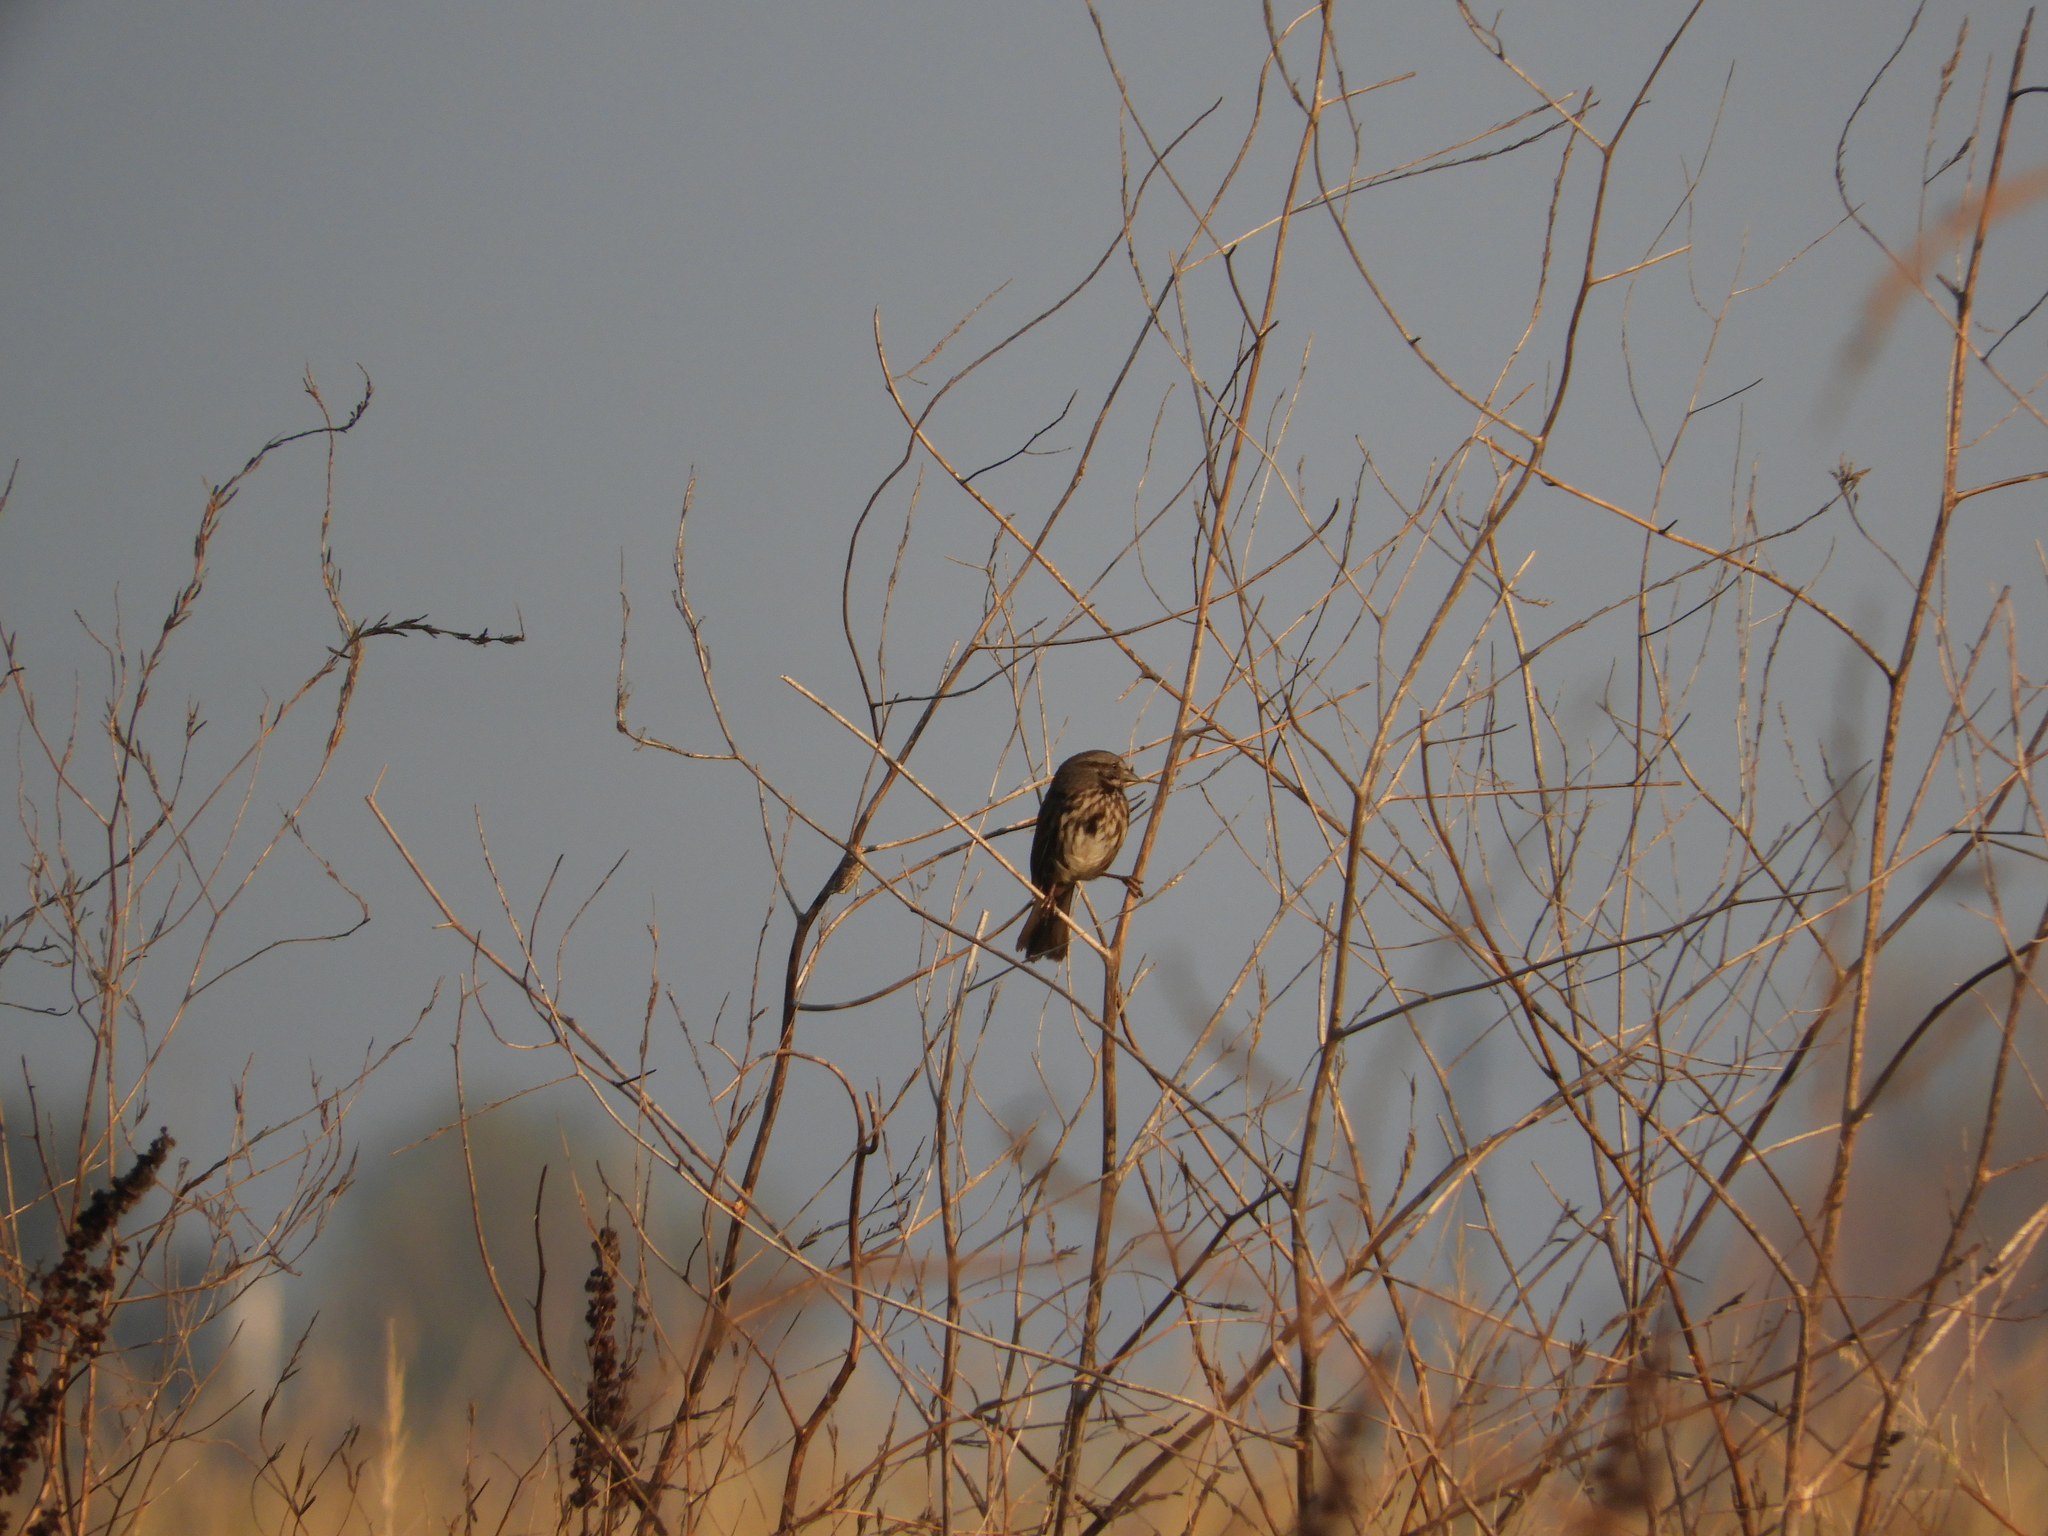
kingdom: Animalia
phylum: Chordata
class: Aves
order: Passeriformes
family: Passerellidae
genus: Melospiza
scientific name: Melospiza melodia
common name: Song sparrow
